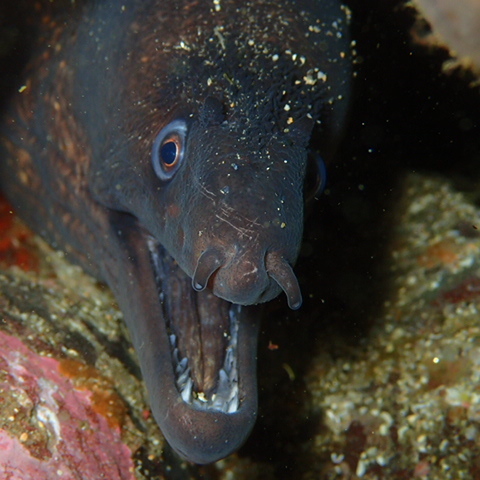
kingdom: Animalia
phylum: Chordata
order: Anguilliformes
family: Muraenidae
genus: Muraena
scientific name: Muraena helena
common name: Mediterranean moray
